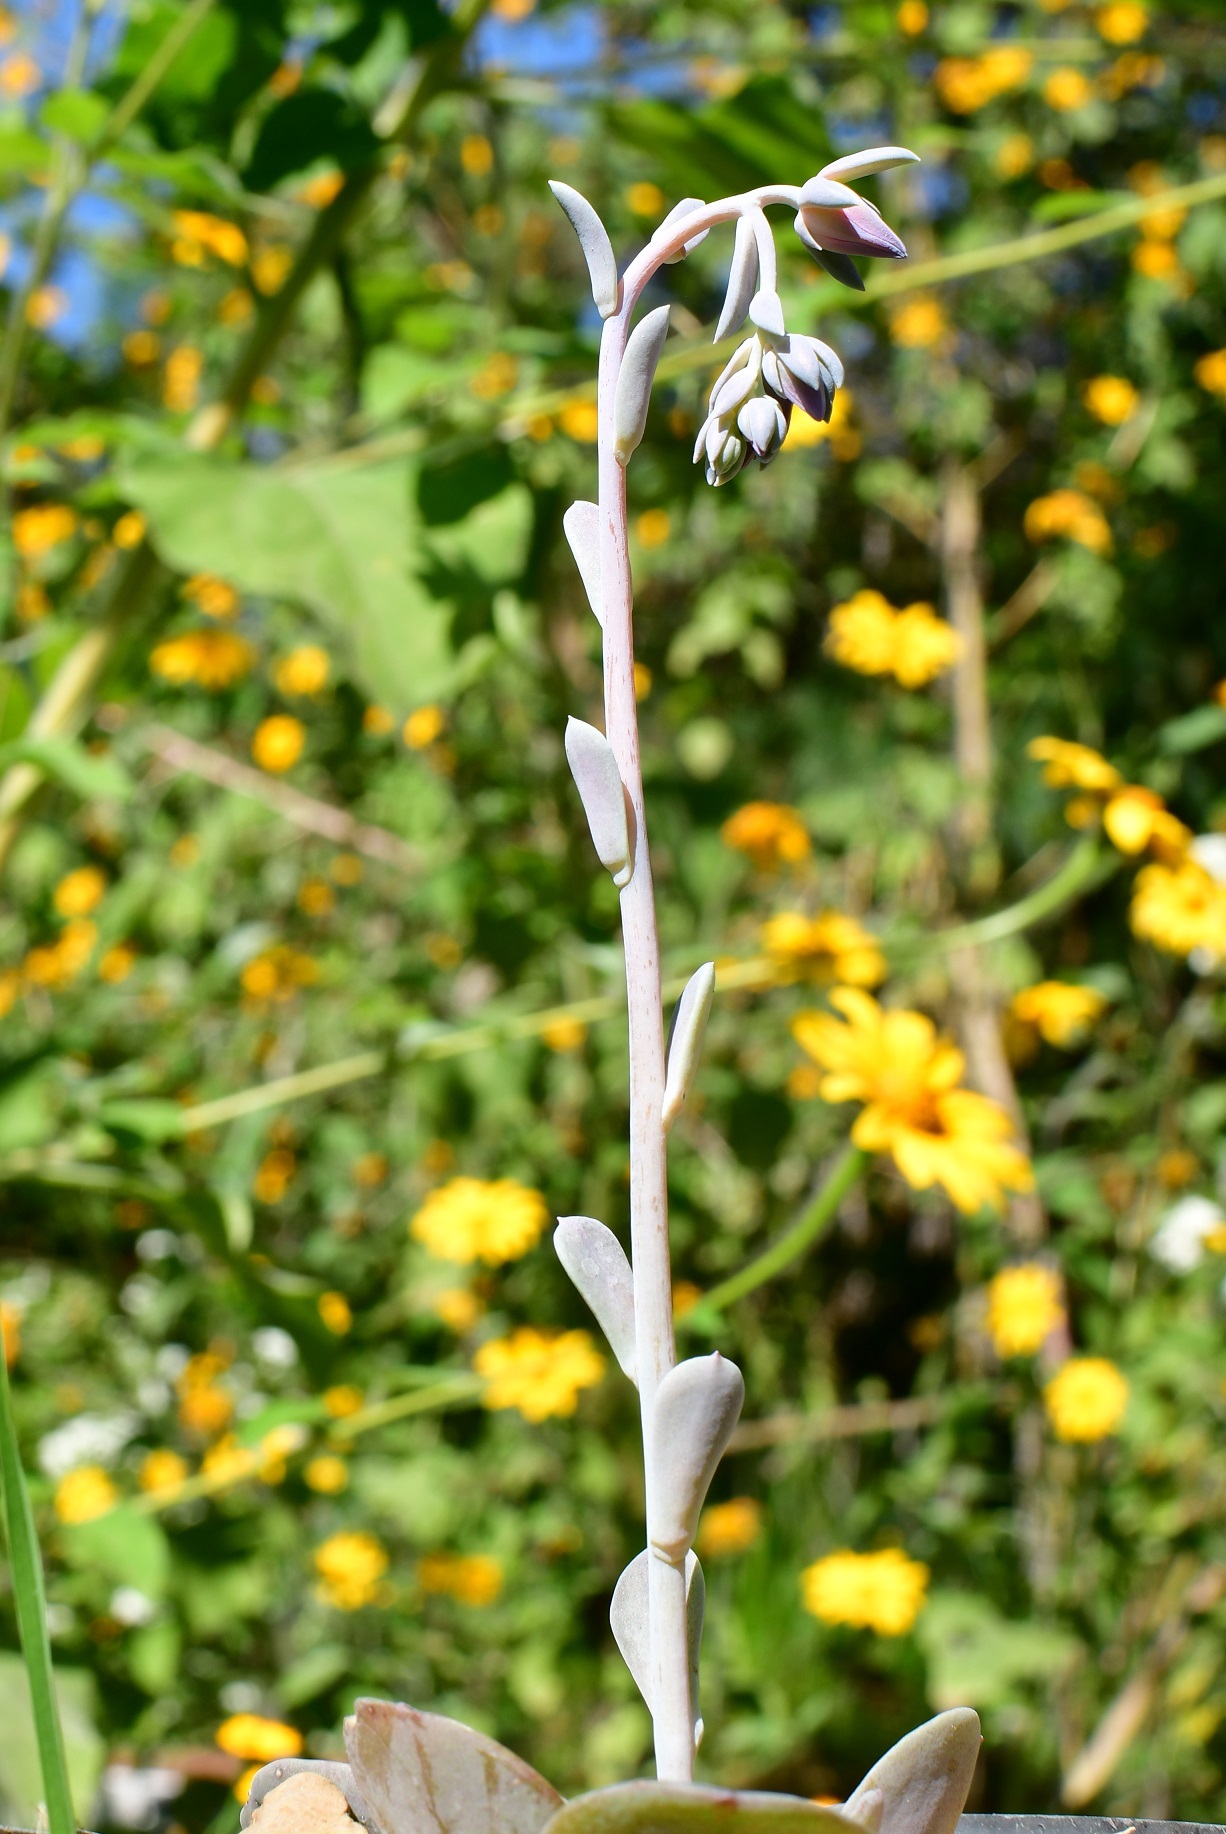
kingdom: Plantae
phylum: Tracheophyta
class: Magnoliopsida
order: Saxifragales
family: Crassulaceae
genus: Echeveria
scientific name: Echeveria prunina
